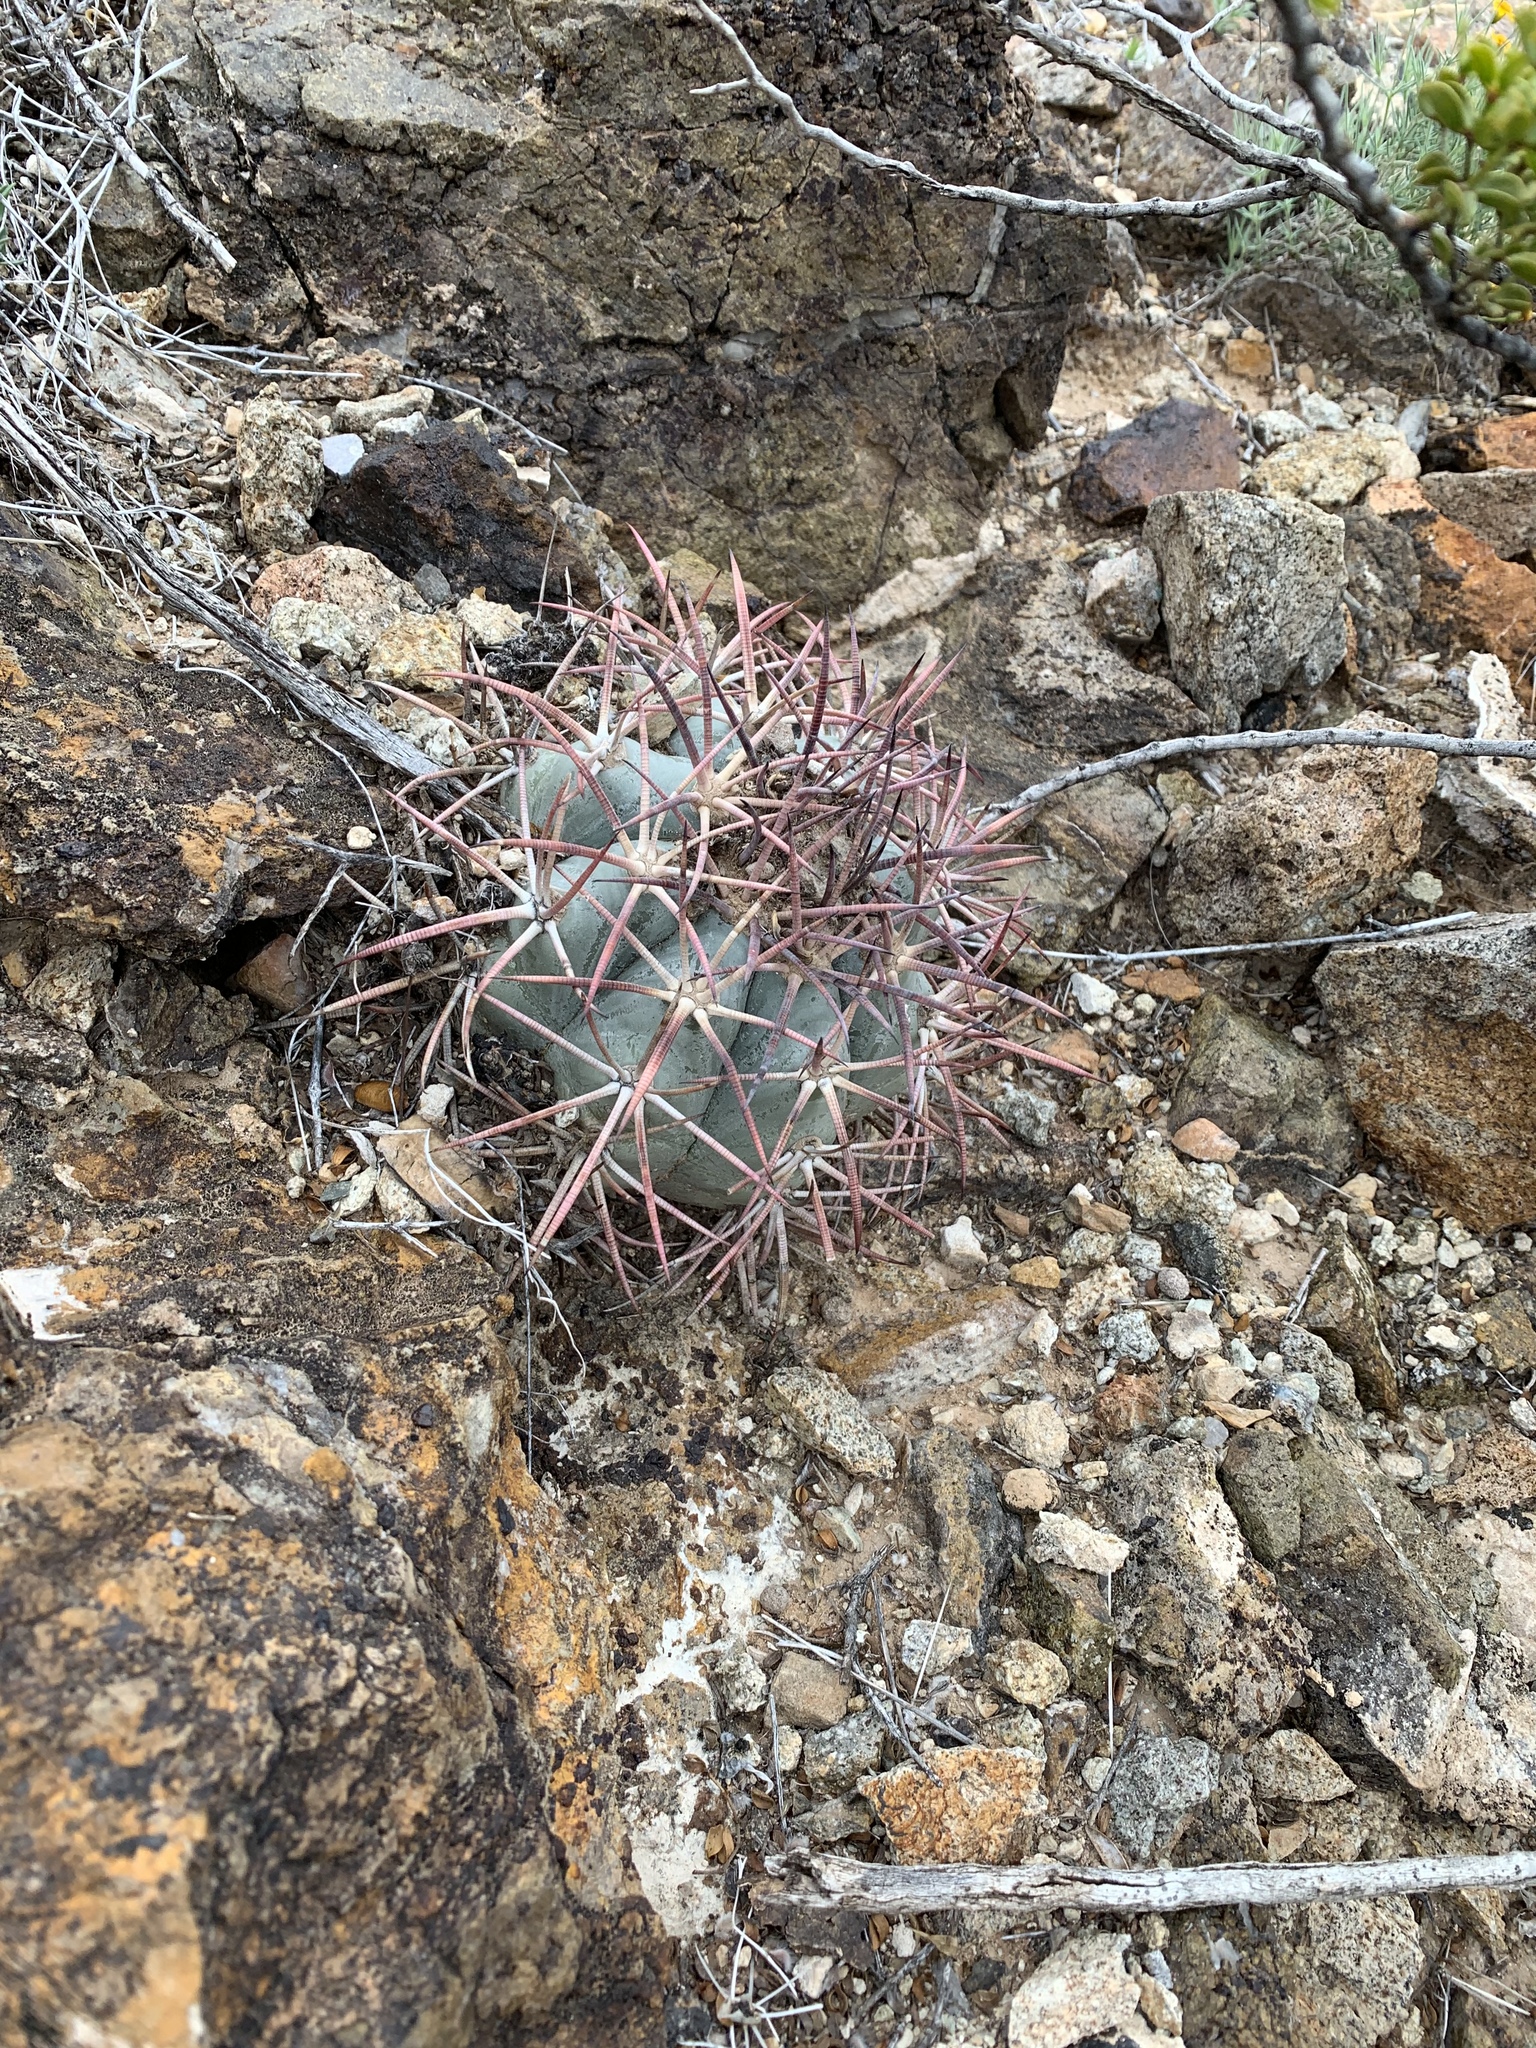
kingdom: Plantae
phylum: Tracheophyta
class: Magnoliopsida
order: Caryophyllales
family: Cactaceae
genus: Echinocactus
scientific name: Echinocactus horizonthalonius
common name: Devilshead
